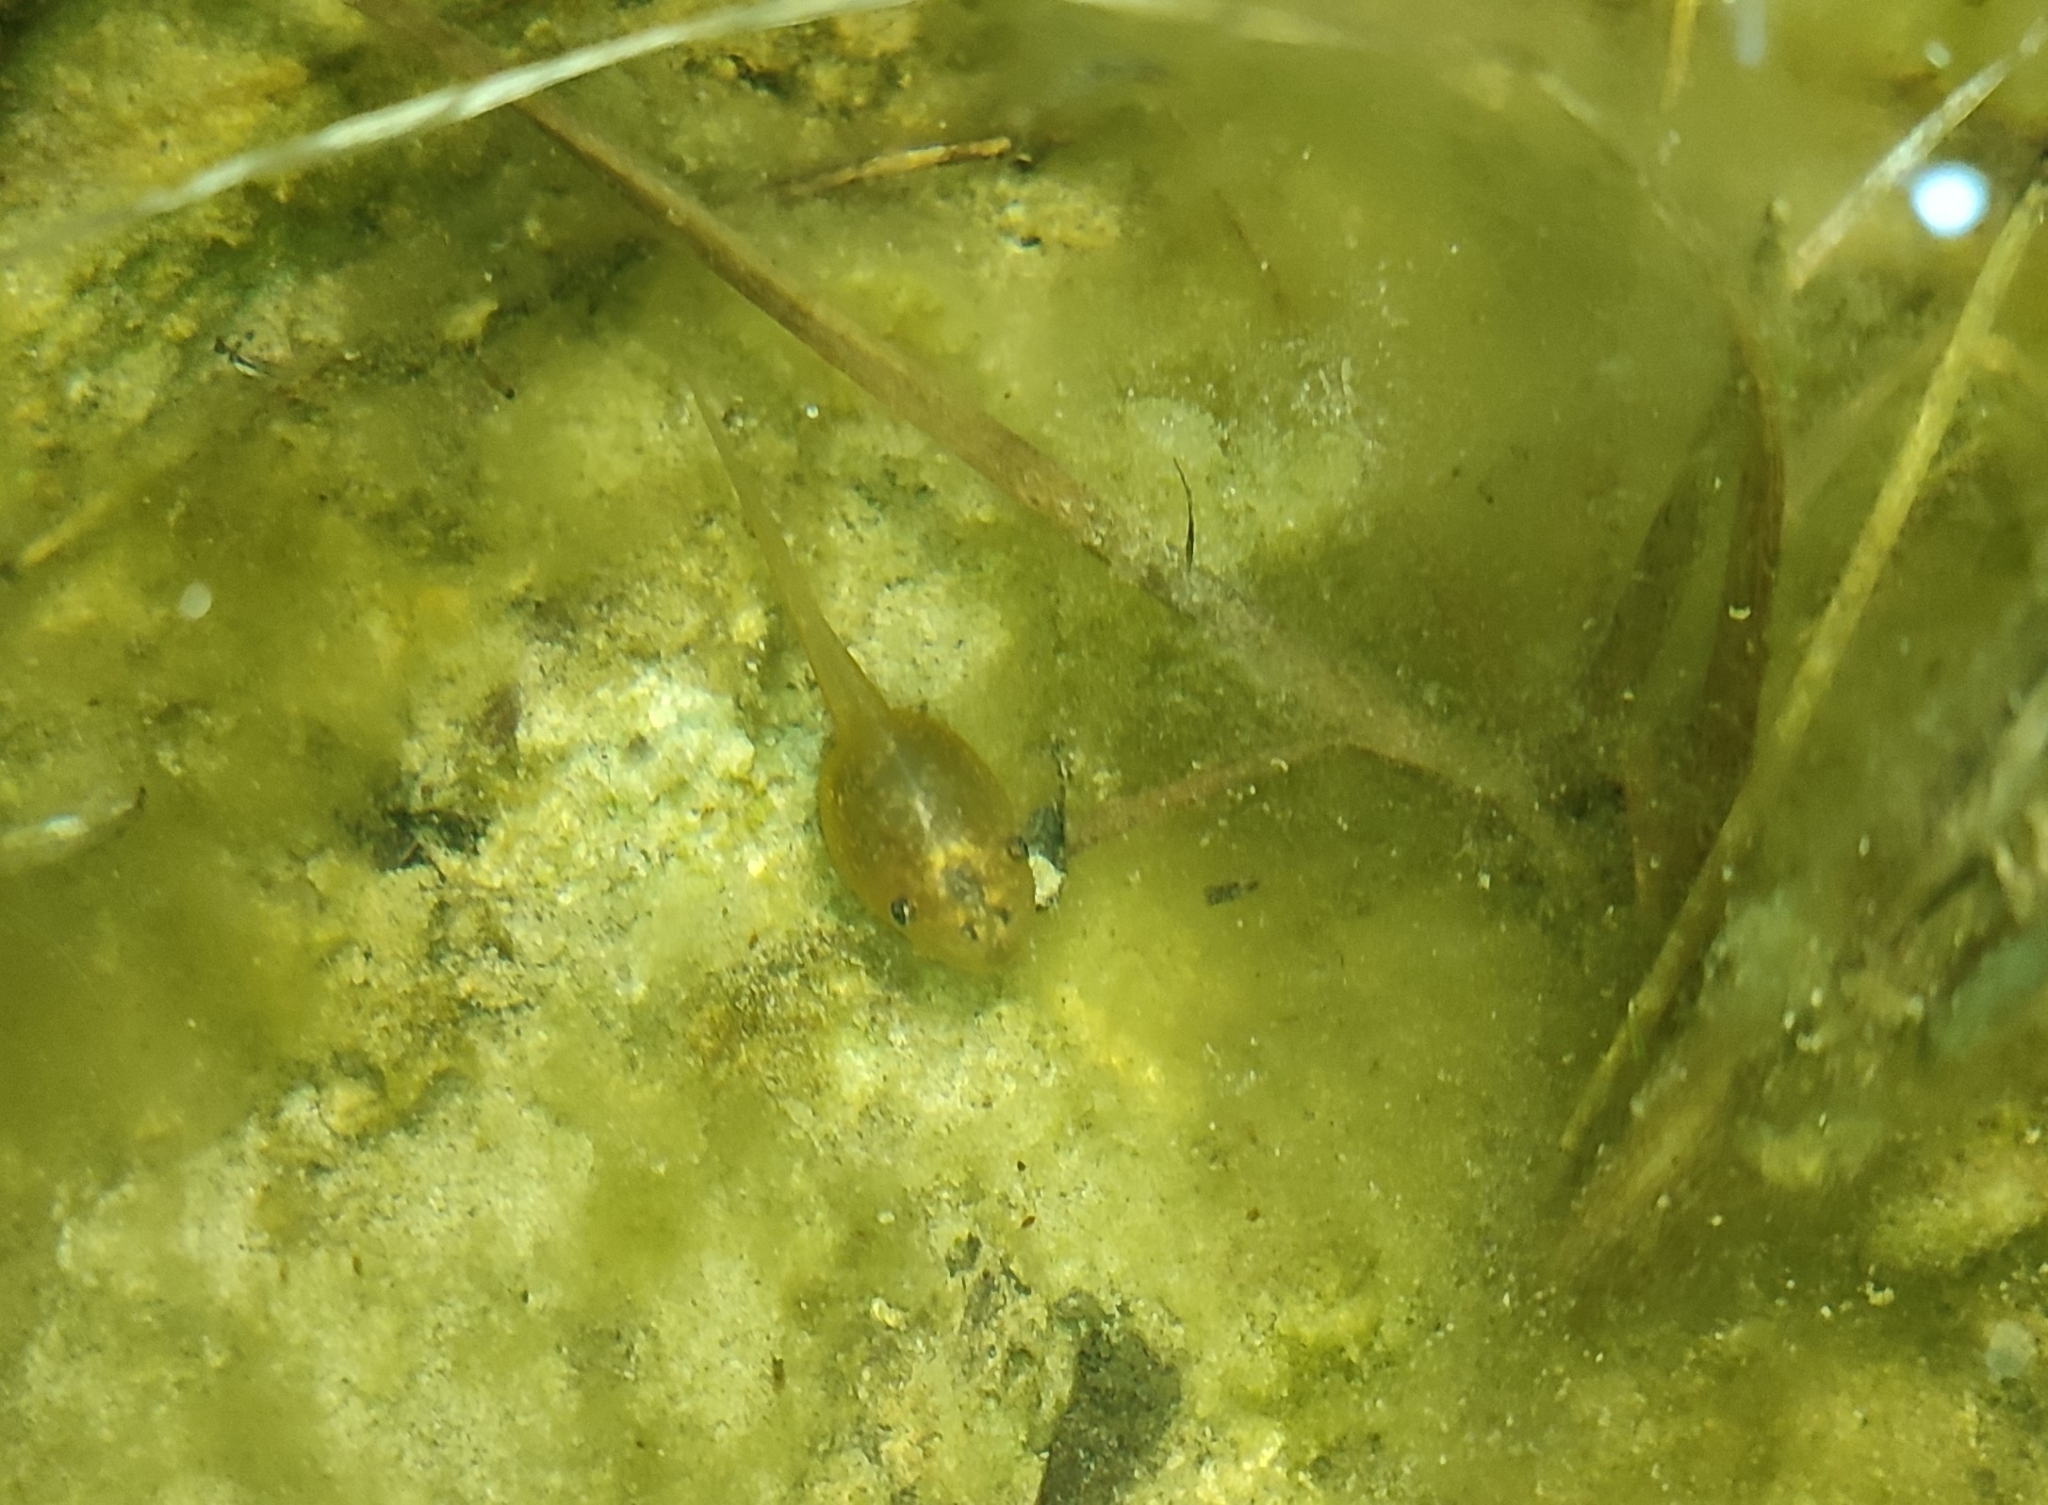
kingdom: Animalia
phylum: Chordata
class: Amphibia
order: Anura
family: Pelobatidae
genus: Pelobates
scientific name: Pelobates cultripes
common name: Western spadefoot
